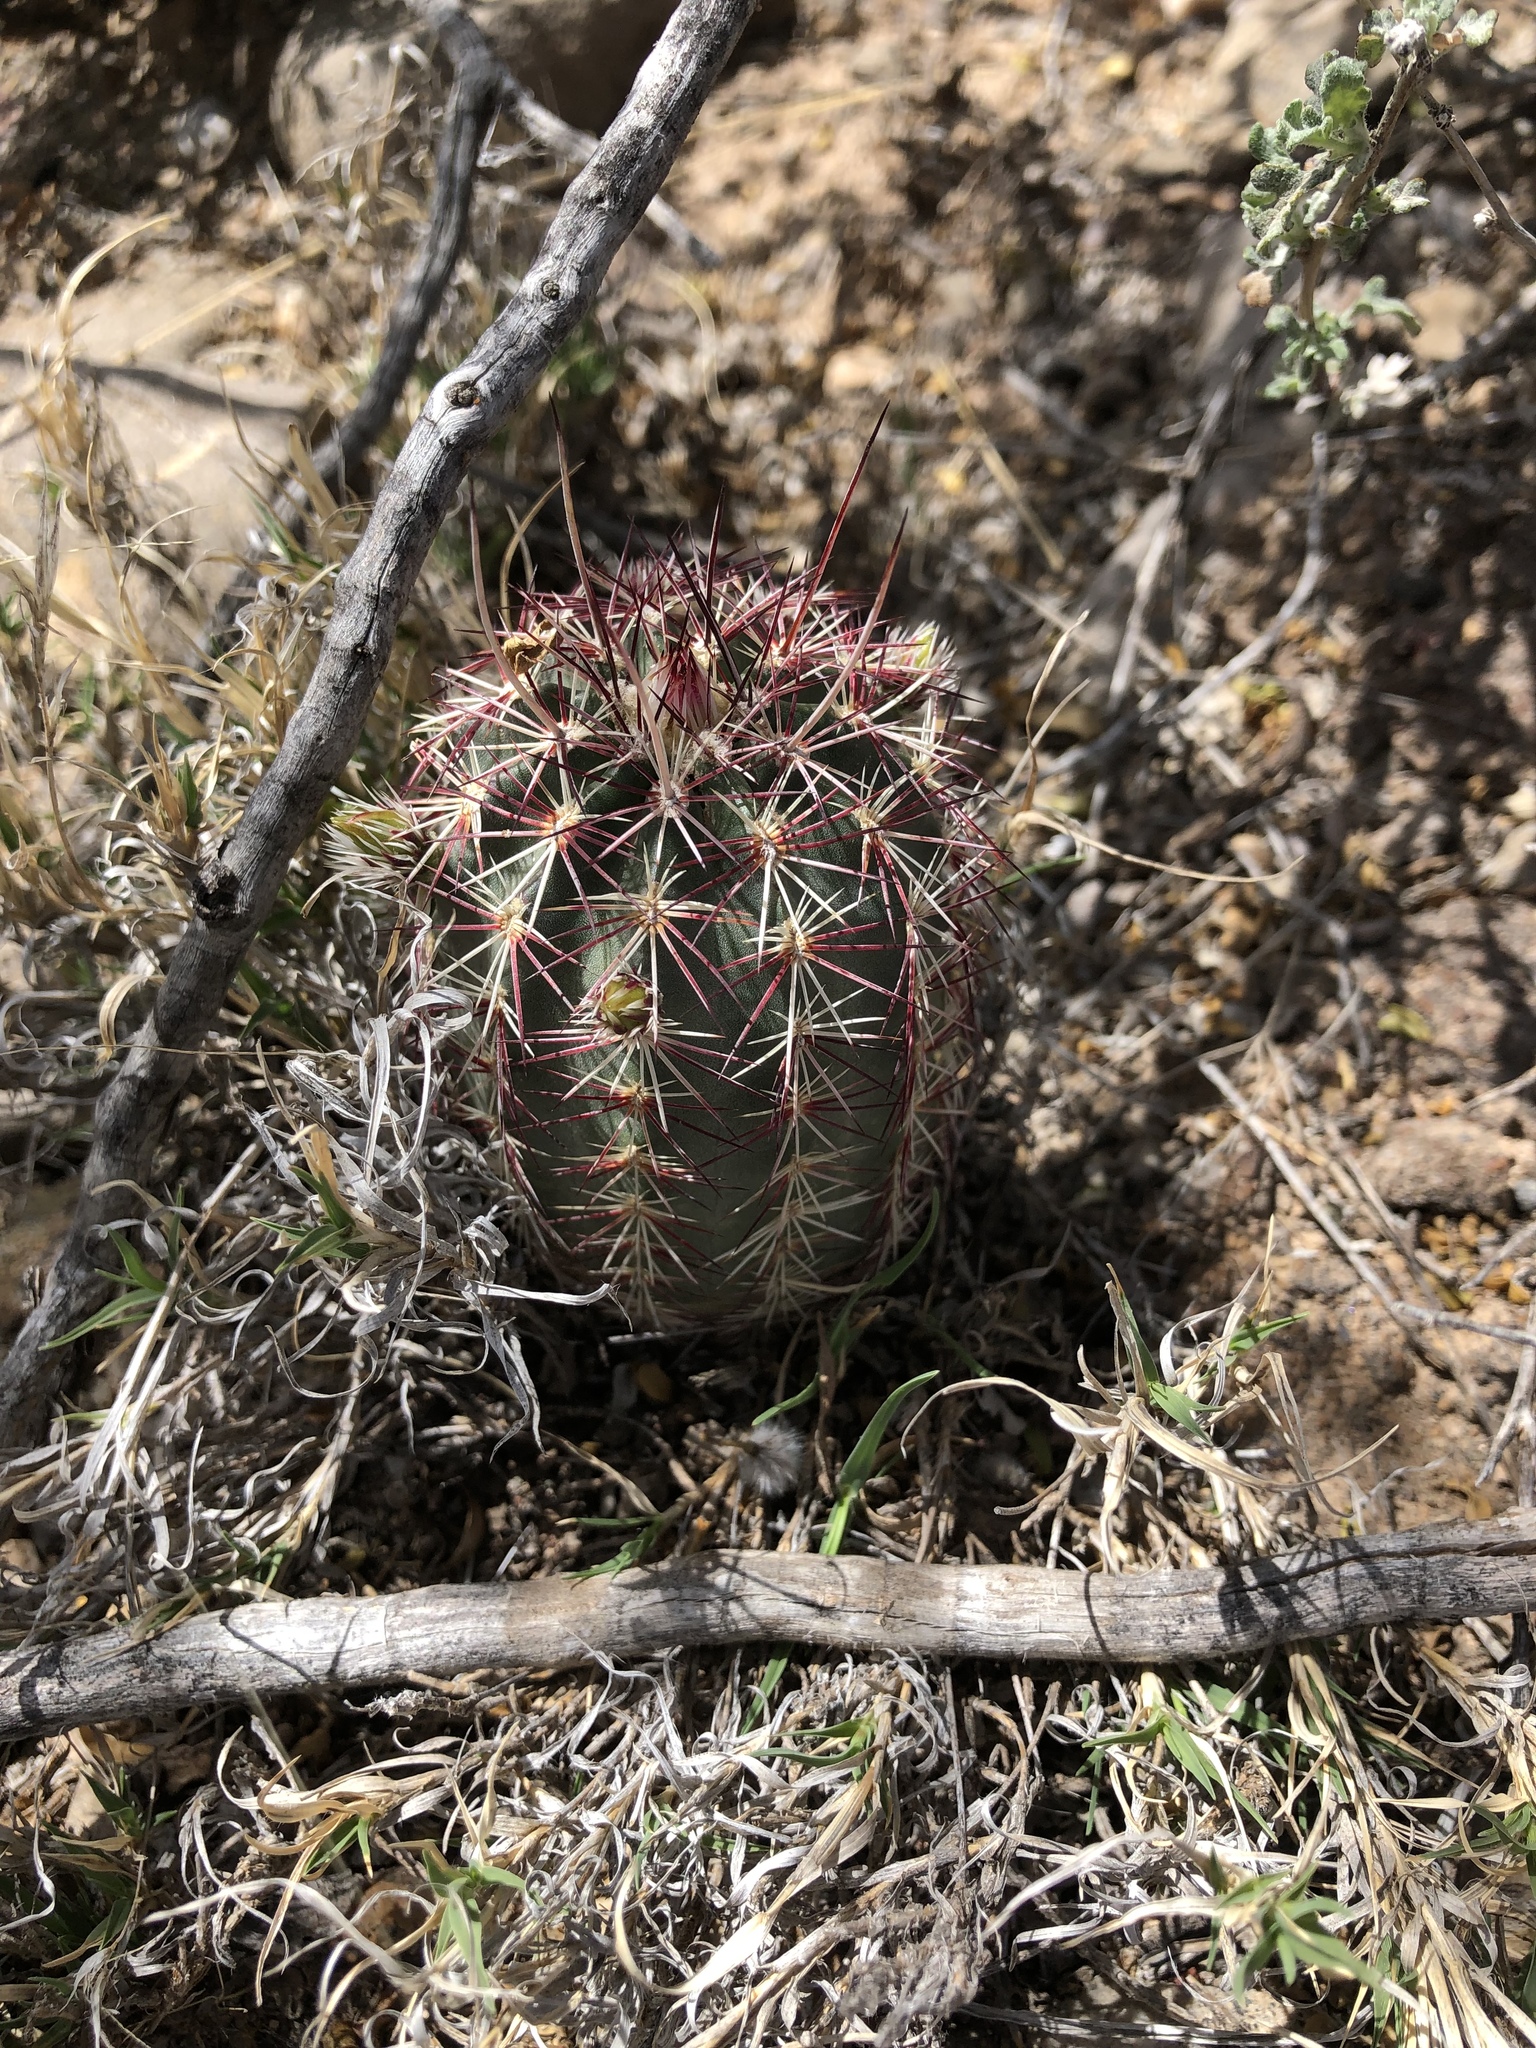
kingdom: Plantae
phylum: Tracheophyta
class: Magnoliopsida
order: Caryophyllales
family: Cactaceae
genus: Echinocereus
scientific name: Echinocereus viridiflorus
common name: Nylon hedgehog cactus
